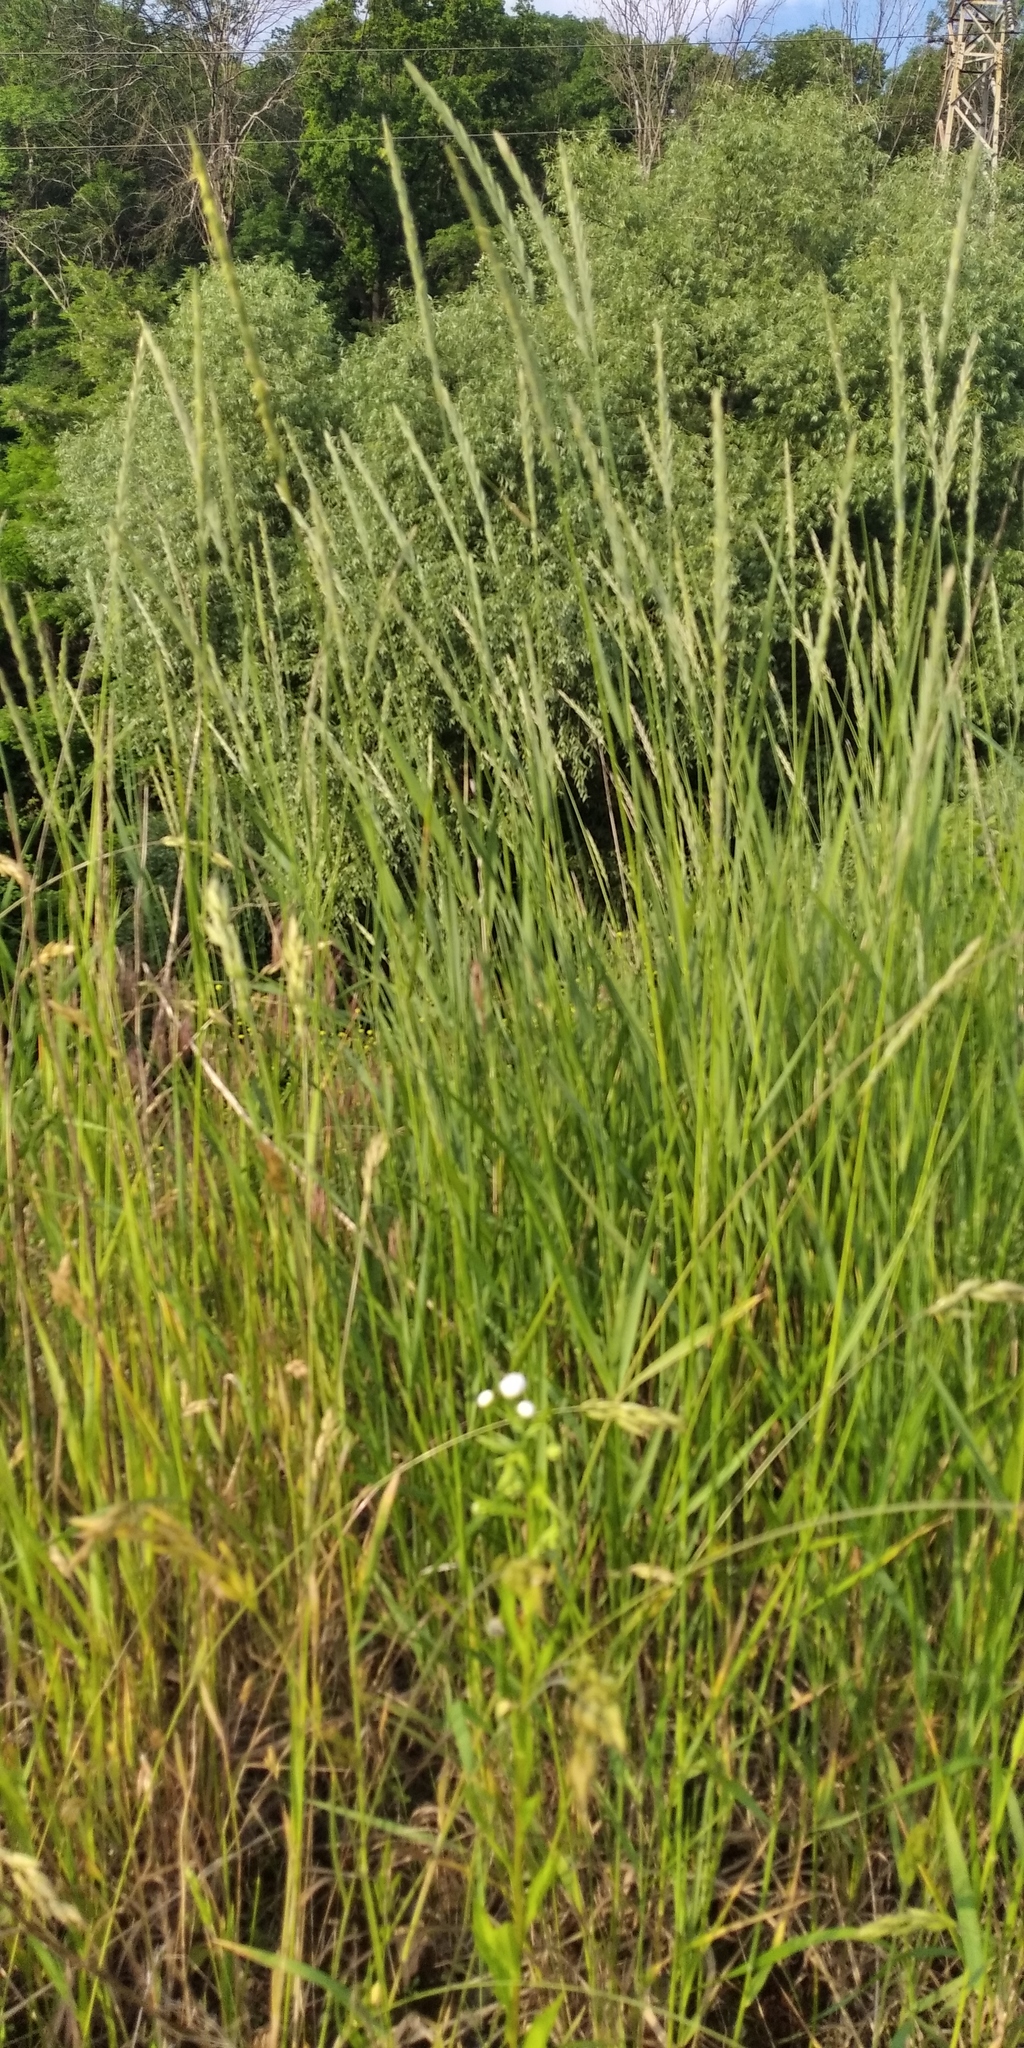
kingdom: Plantae
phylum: Tracheophyta
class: Liliopsida
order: Poales
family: Poaceae
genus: Elymus
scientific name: Elymus repens
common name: Quackgrass
